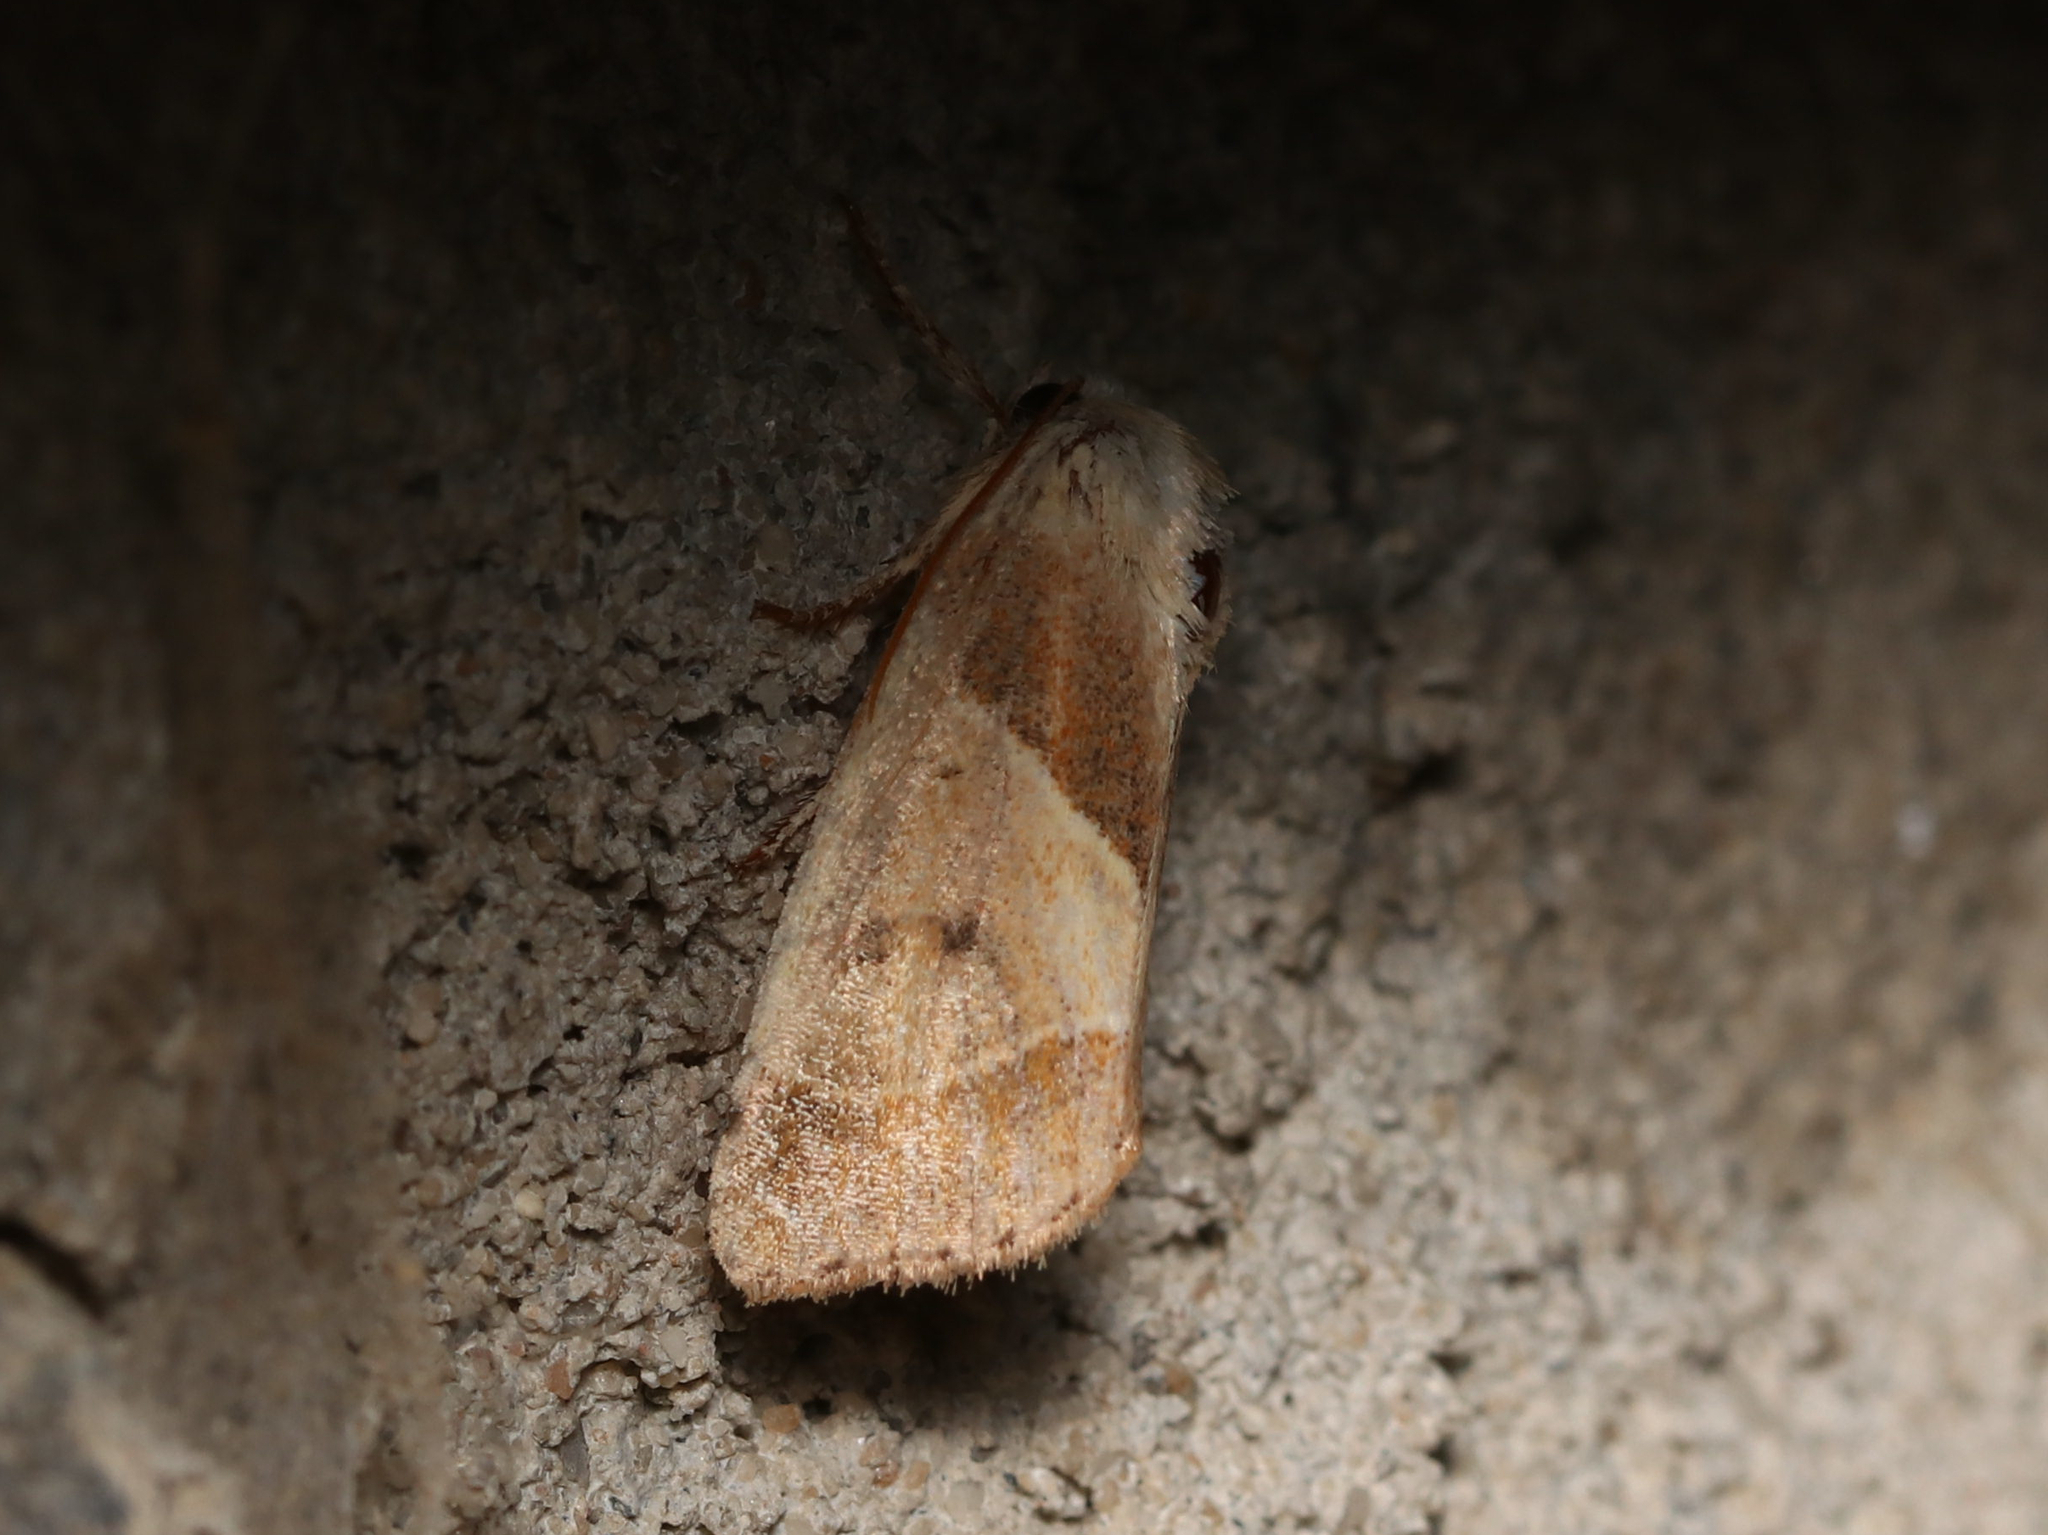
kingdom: Animalia
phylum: Arthropoda
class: Insecta
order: Lepidoptera
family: Noctuidae
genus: Cosmia
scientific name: Cosmia calami
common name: American dun-bar moth
